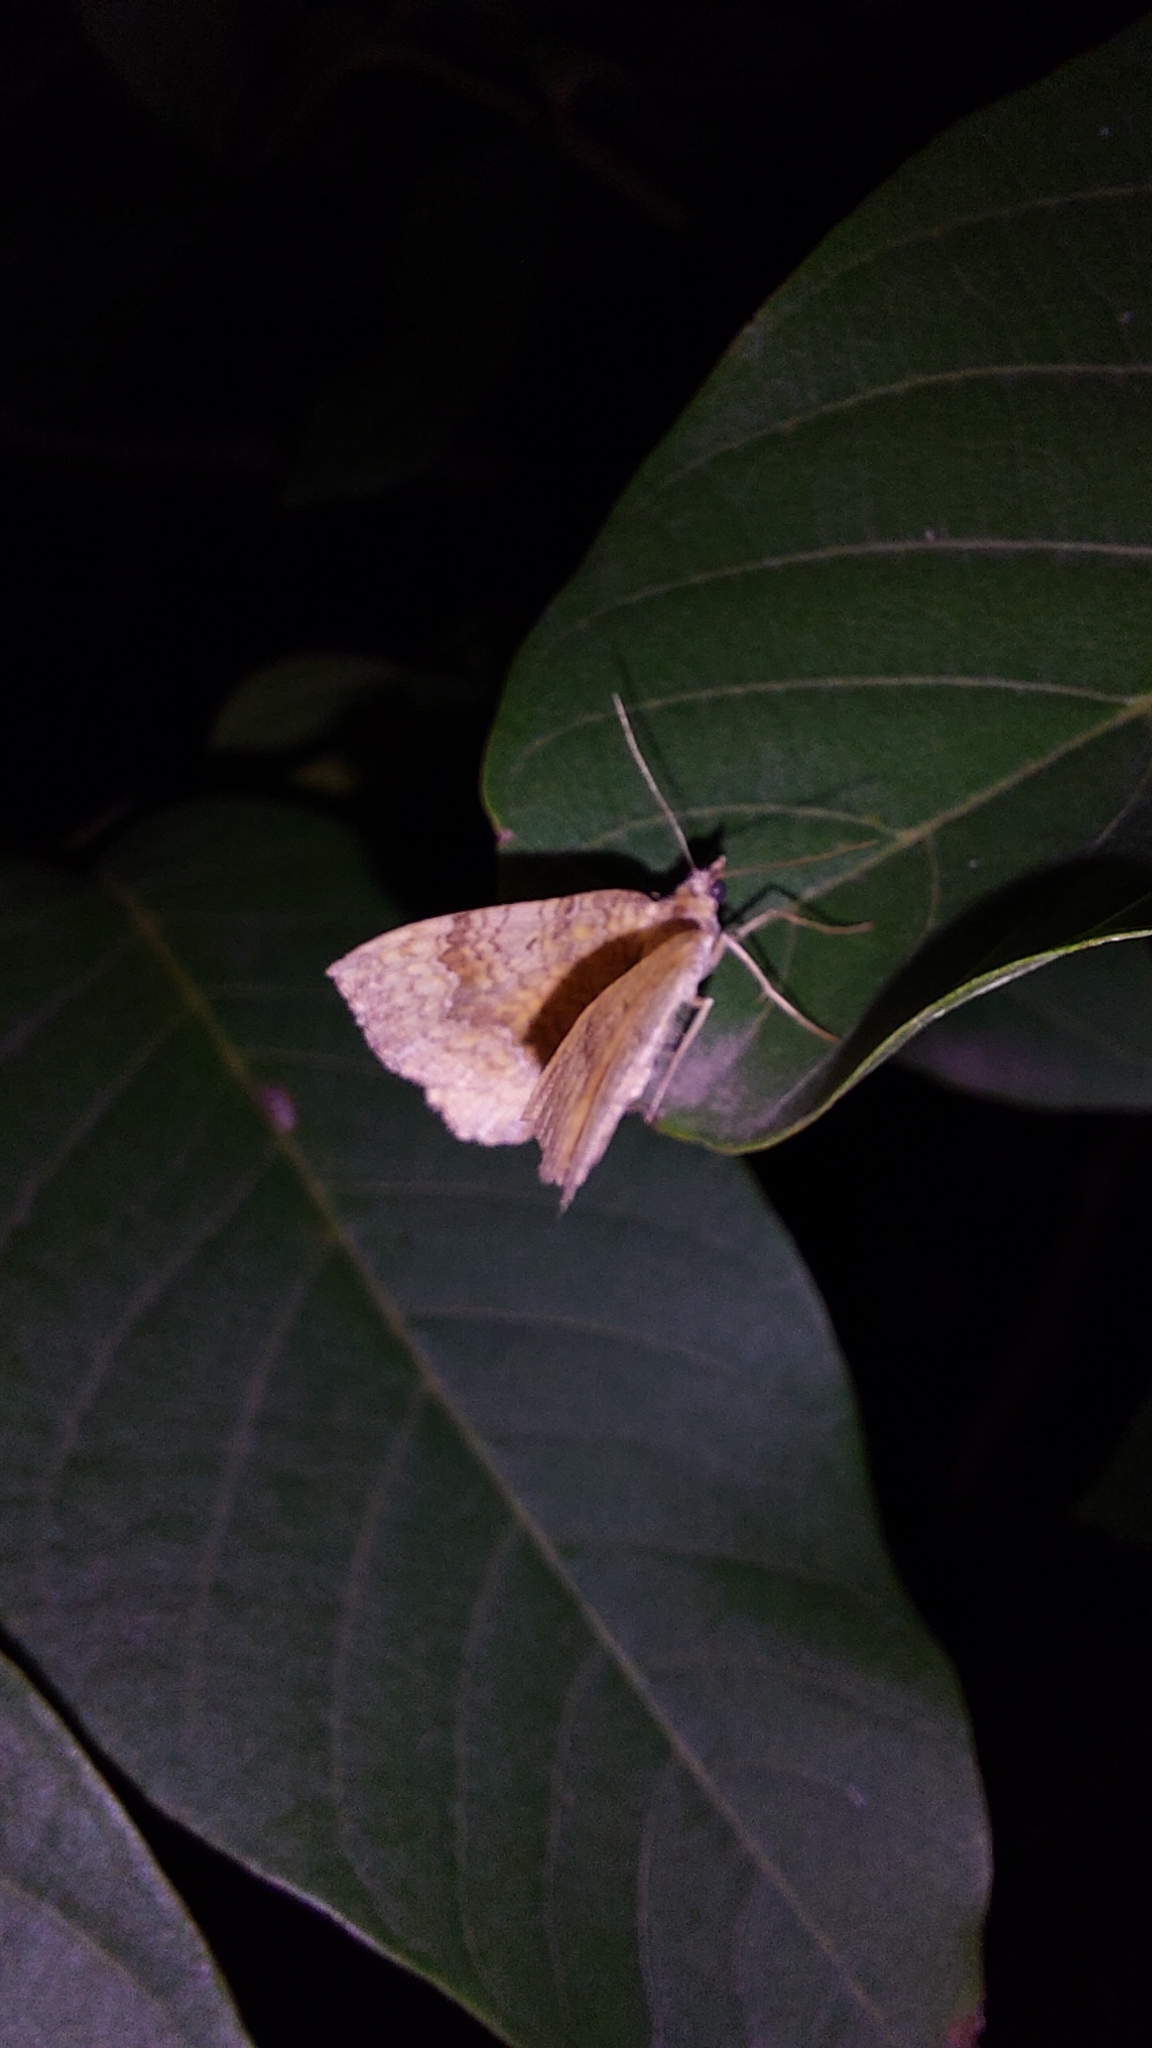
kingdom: Animalia
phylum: Arthropoda
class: Insecta
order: Lepidoptera
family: Geometridae
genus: Camptogramma
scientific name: Camptogramma bilineata
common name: Yellow shell
